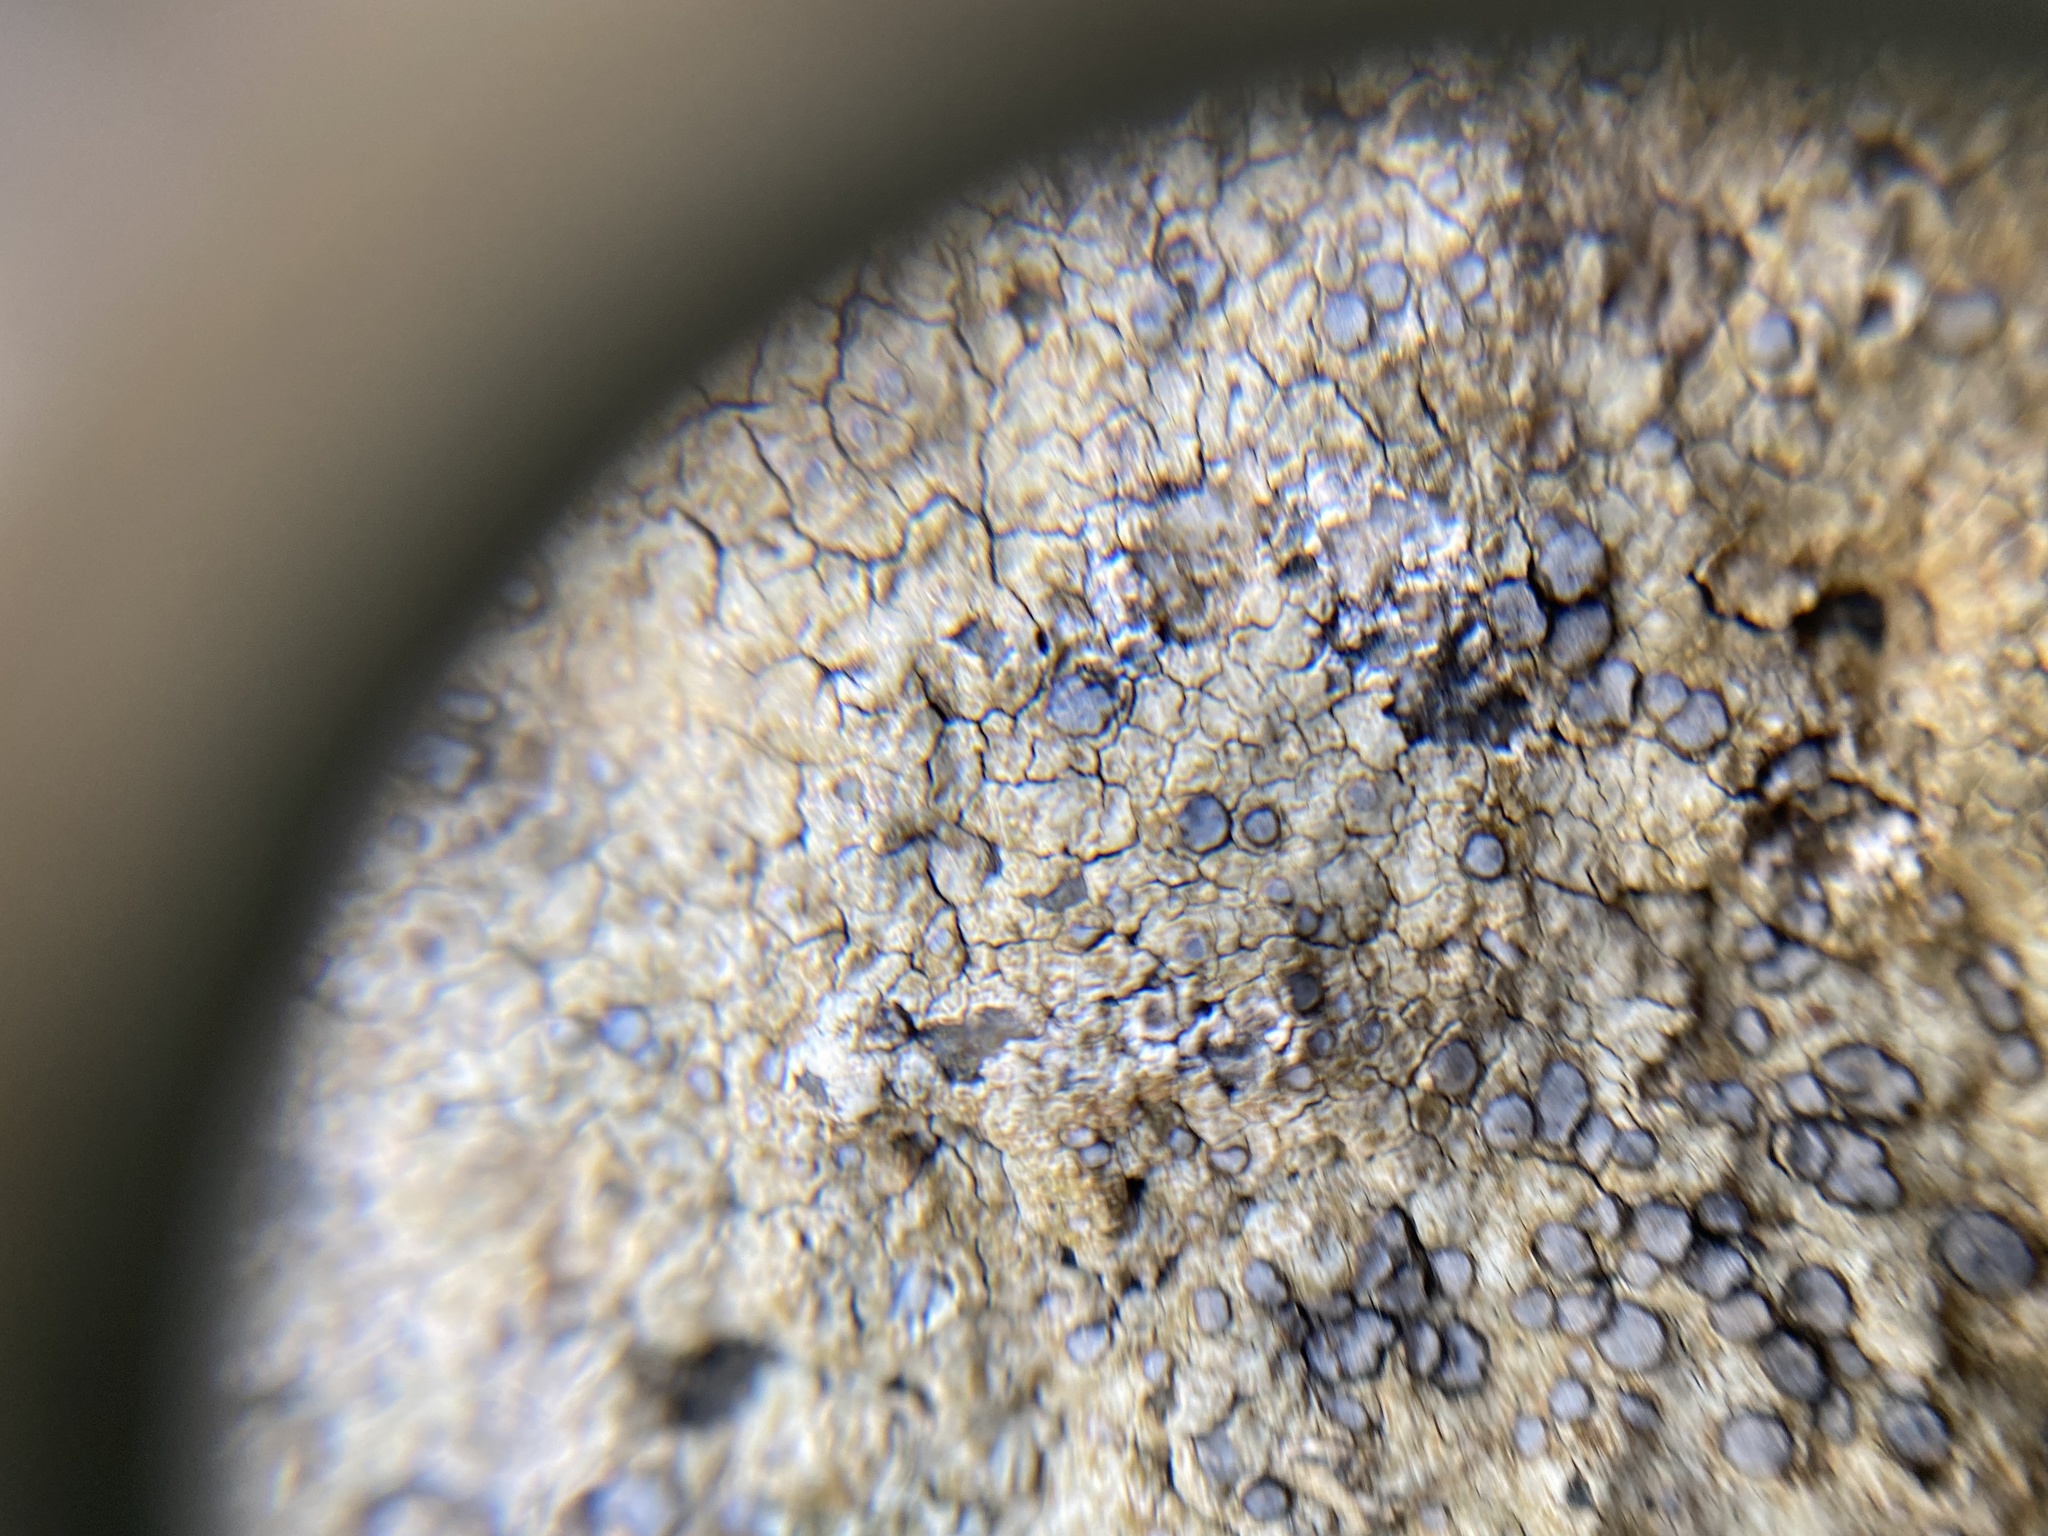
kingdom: Fungi
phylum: Ascomycota
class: Lecanoromycetes
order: Lecideales
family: Lecideaceae
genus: Porpidia
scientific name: Porpidia albocaerulescens
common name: Smokey-eyed boulder lichen
